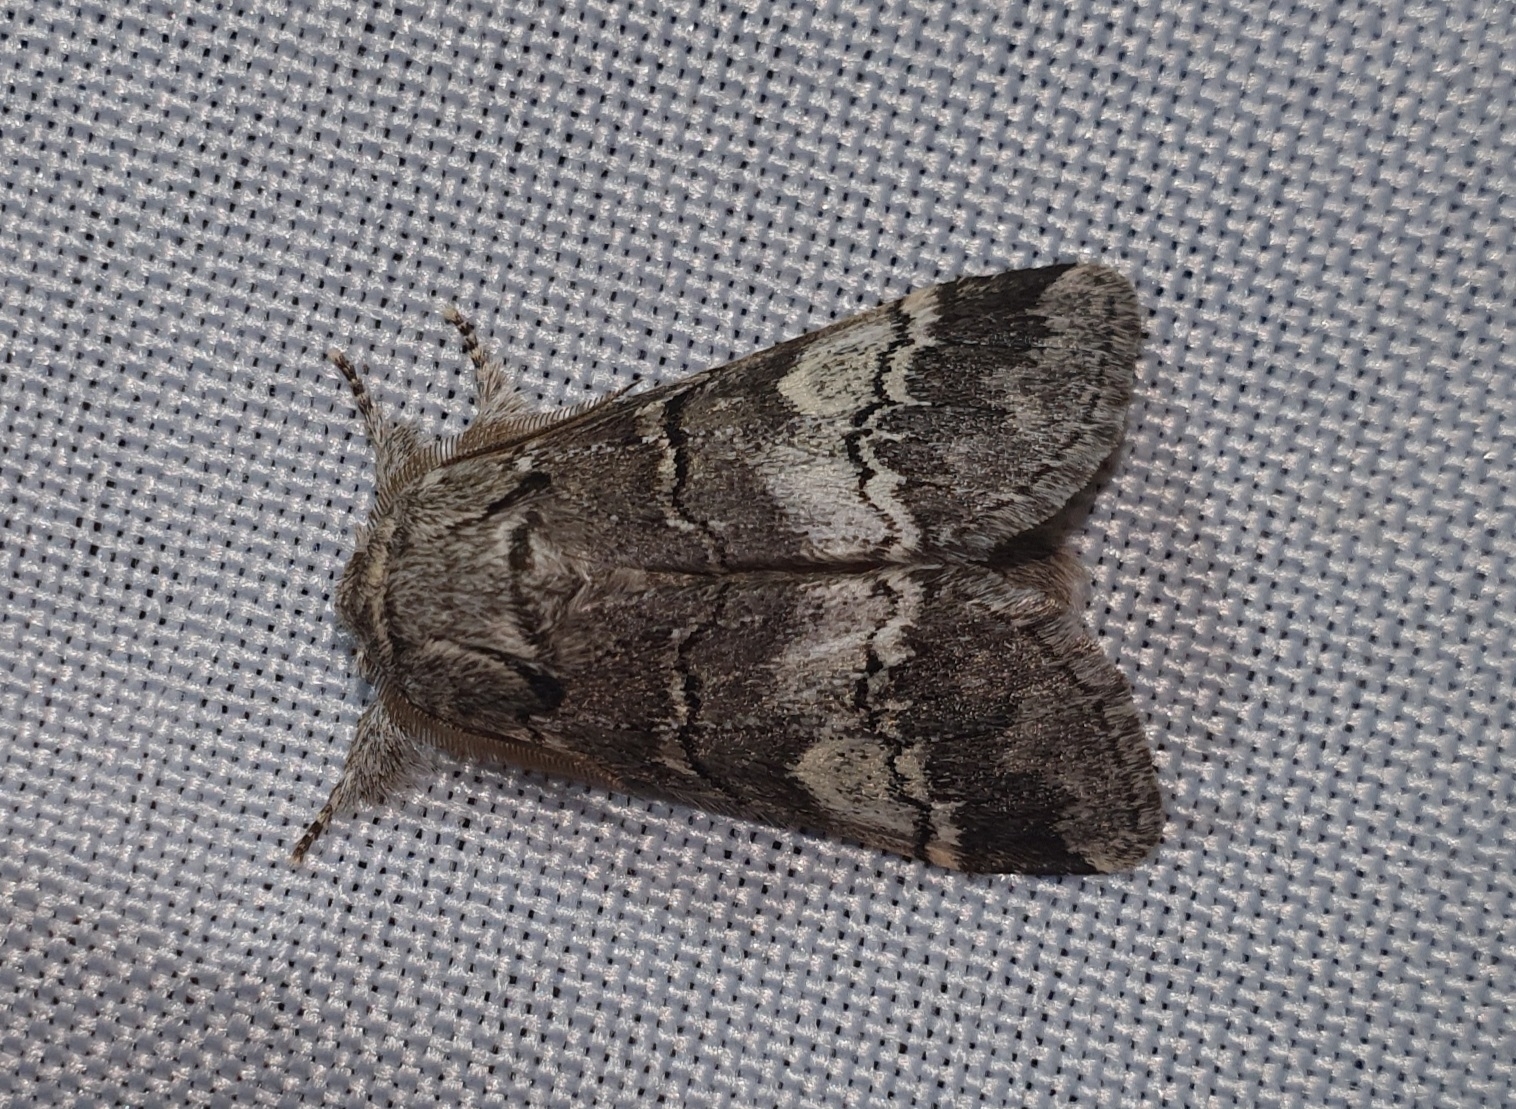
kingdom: Animalia
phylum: Arthropoda
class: Insecta
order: Lepidoptera
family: Notodontidae
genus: Drymonia
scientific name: Drymonia querna
